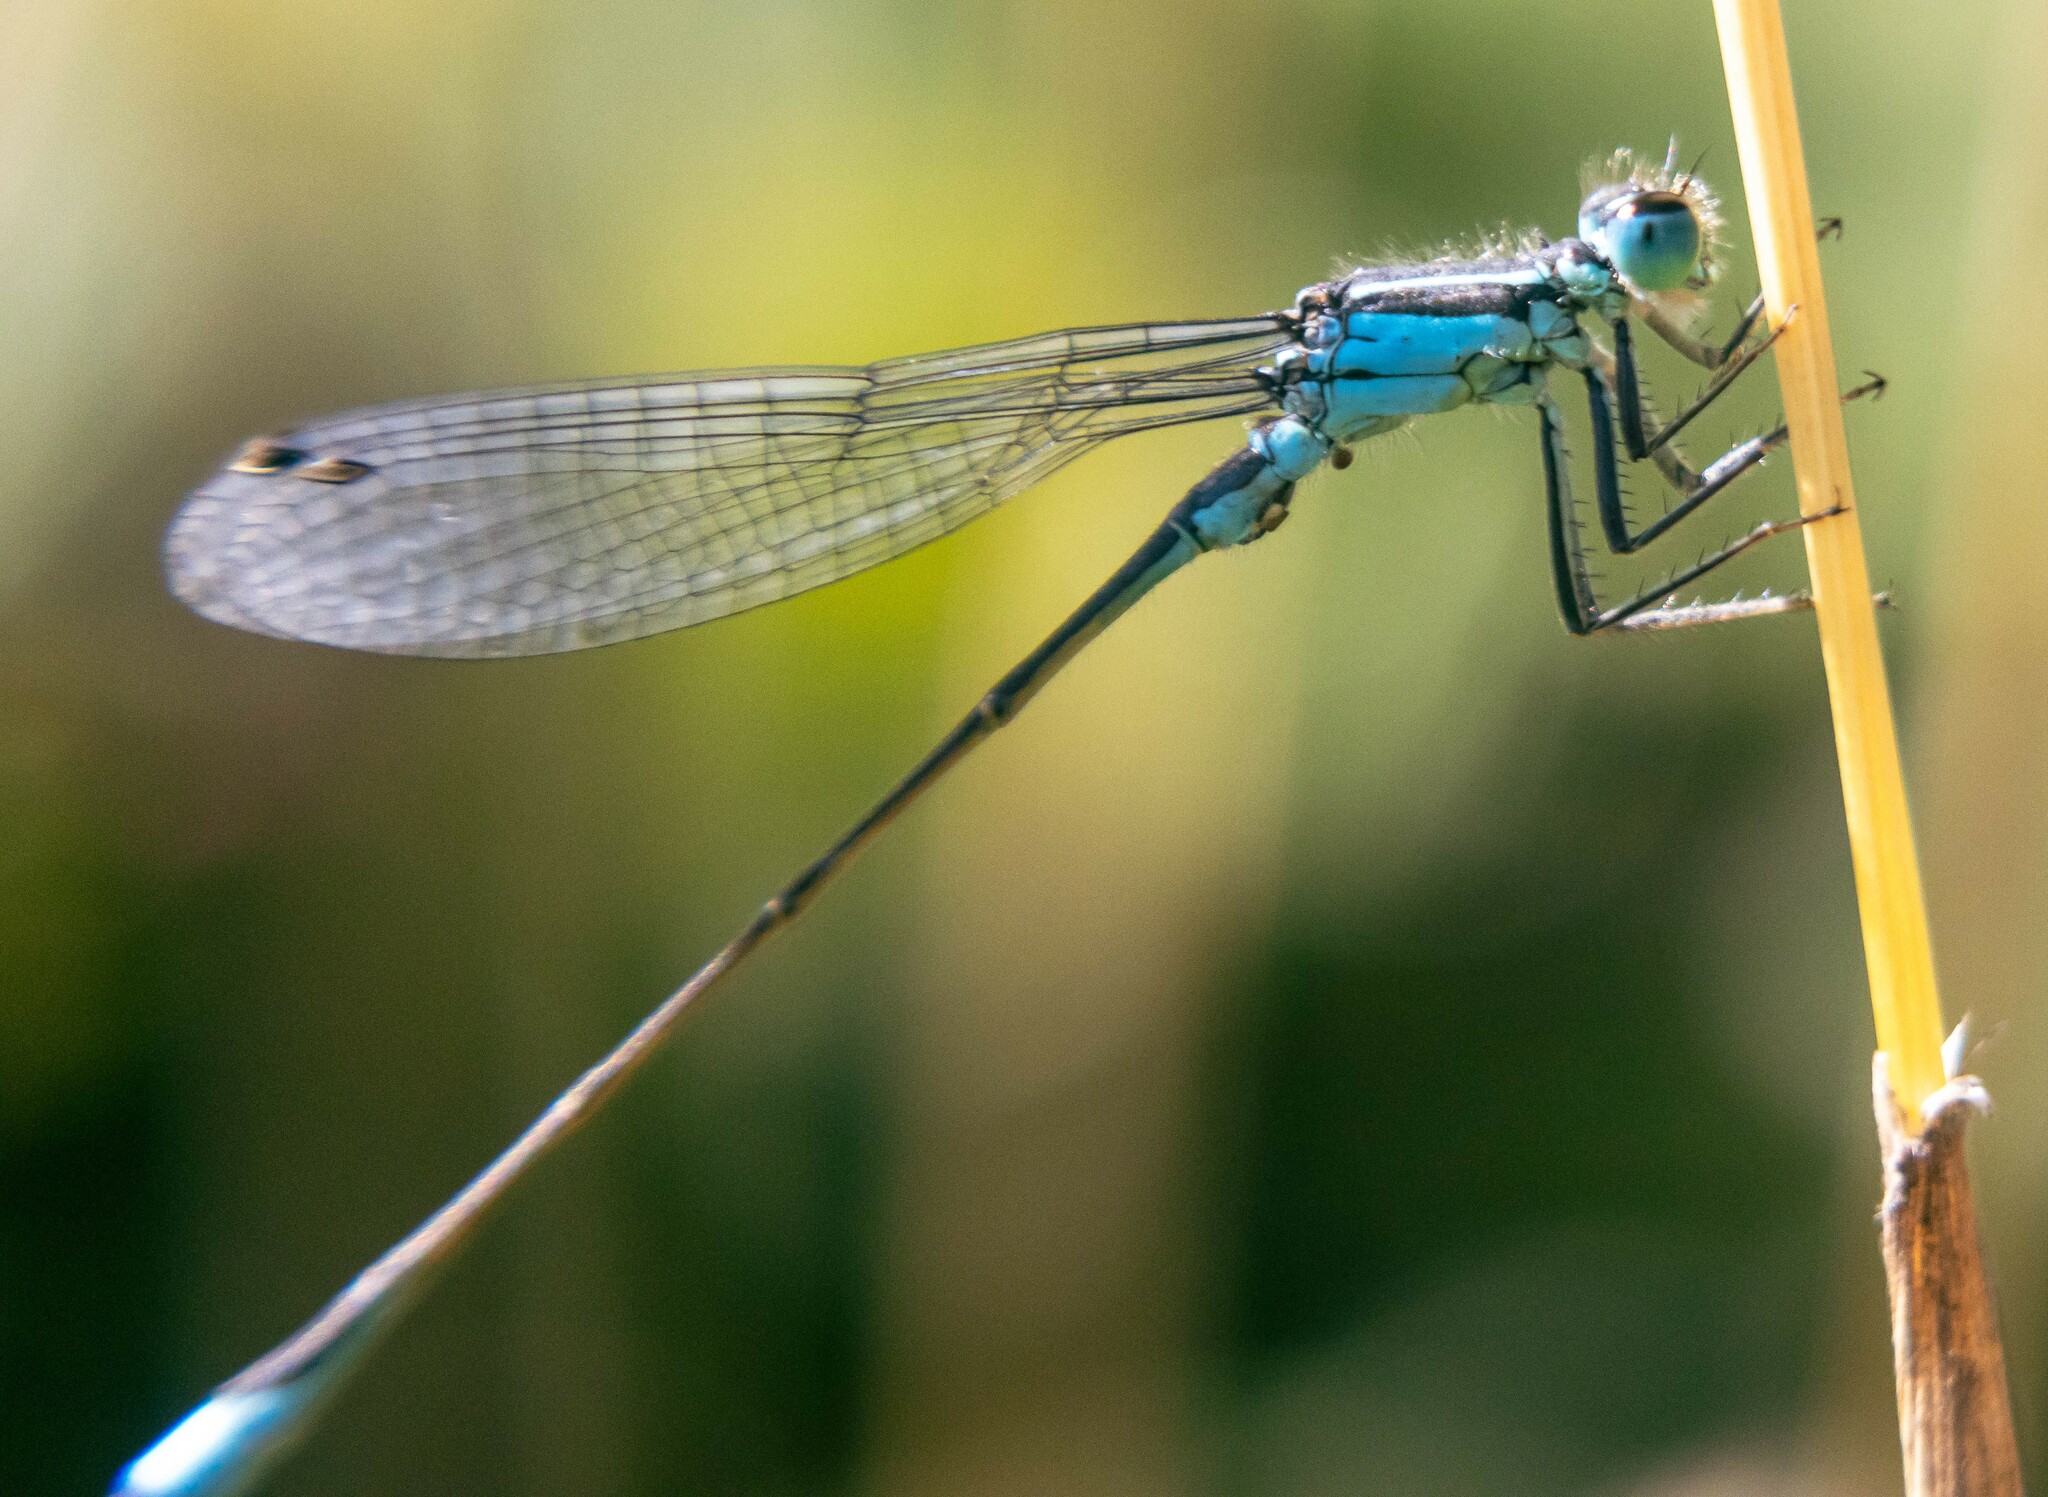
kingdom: Animalia
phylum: Arthropoda
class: Insecta
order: Odonata
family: Coenagrionidae
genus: Ischnura
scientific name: Ischnura elegans
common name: Blue-tailed damselfly
